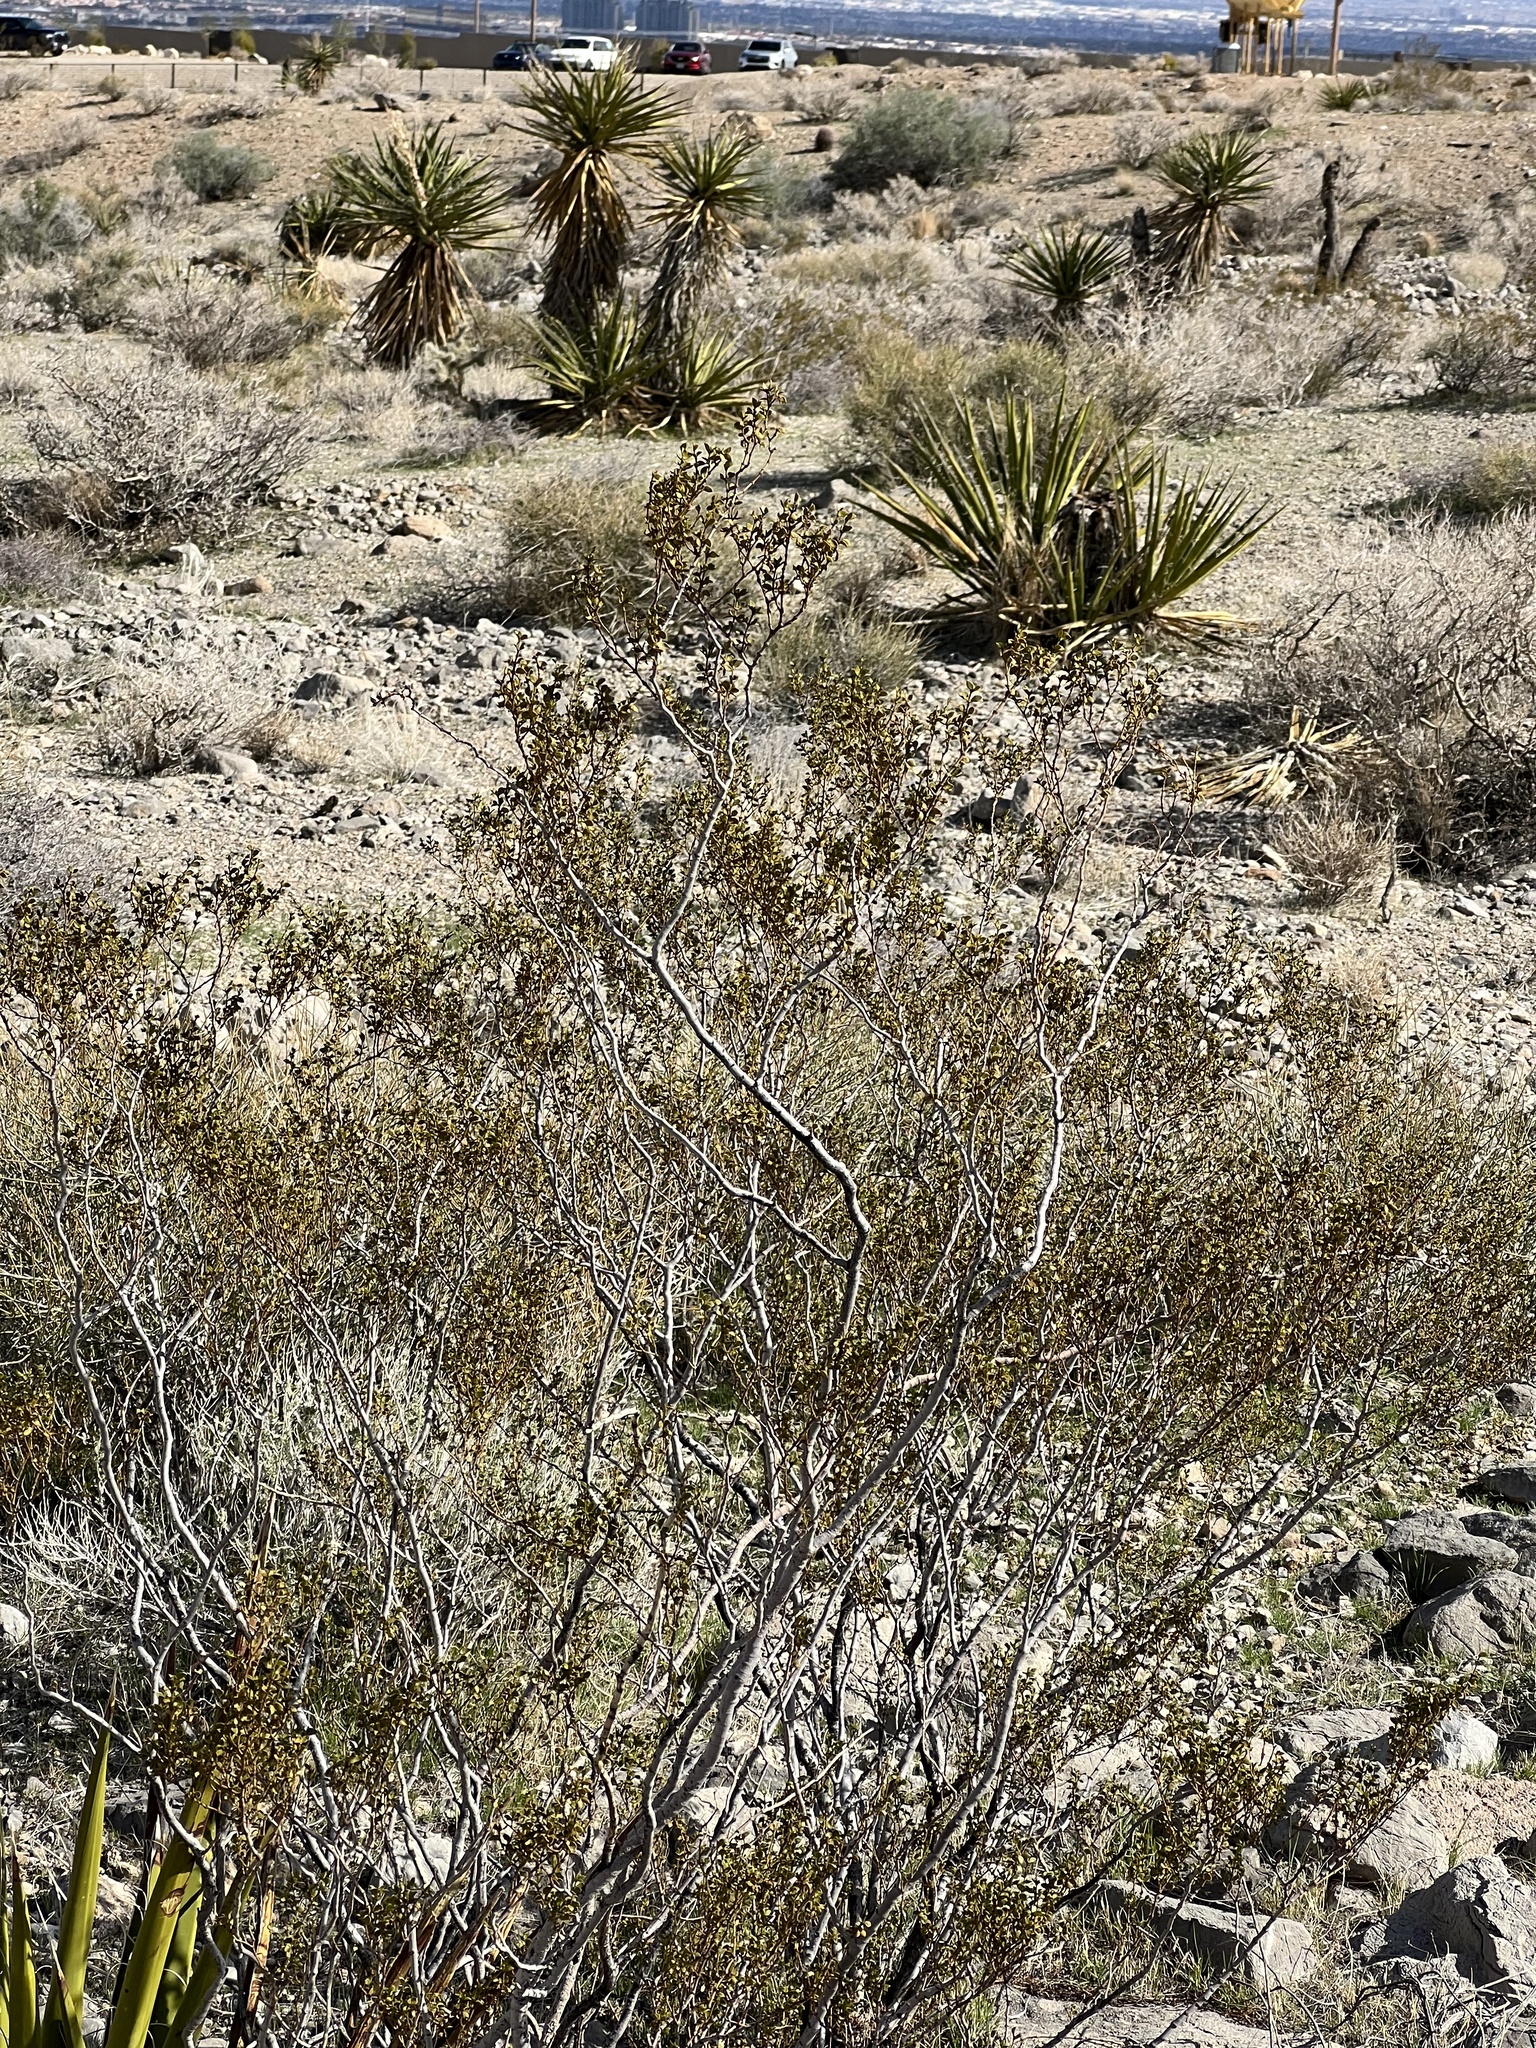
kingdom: Plantae
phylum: Tracheophyta
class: Magnoliopsida
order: Zygophyllales
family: Zygophyllaceae
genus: Larrea
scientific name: Larrea tridentata
